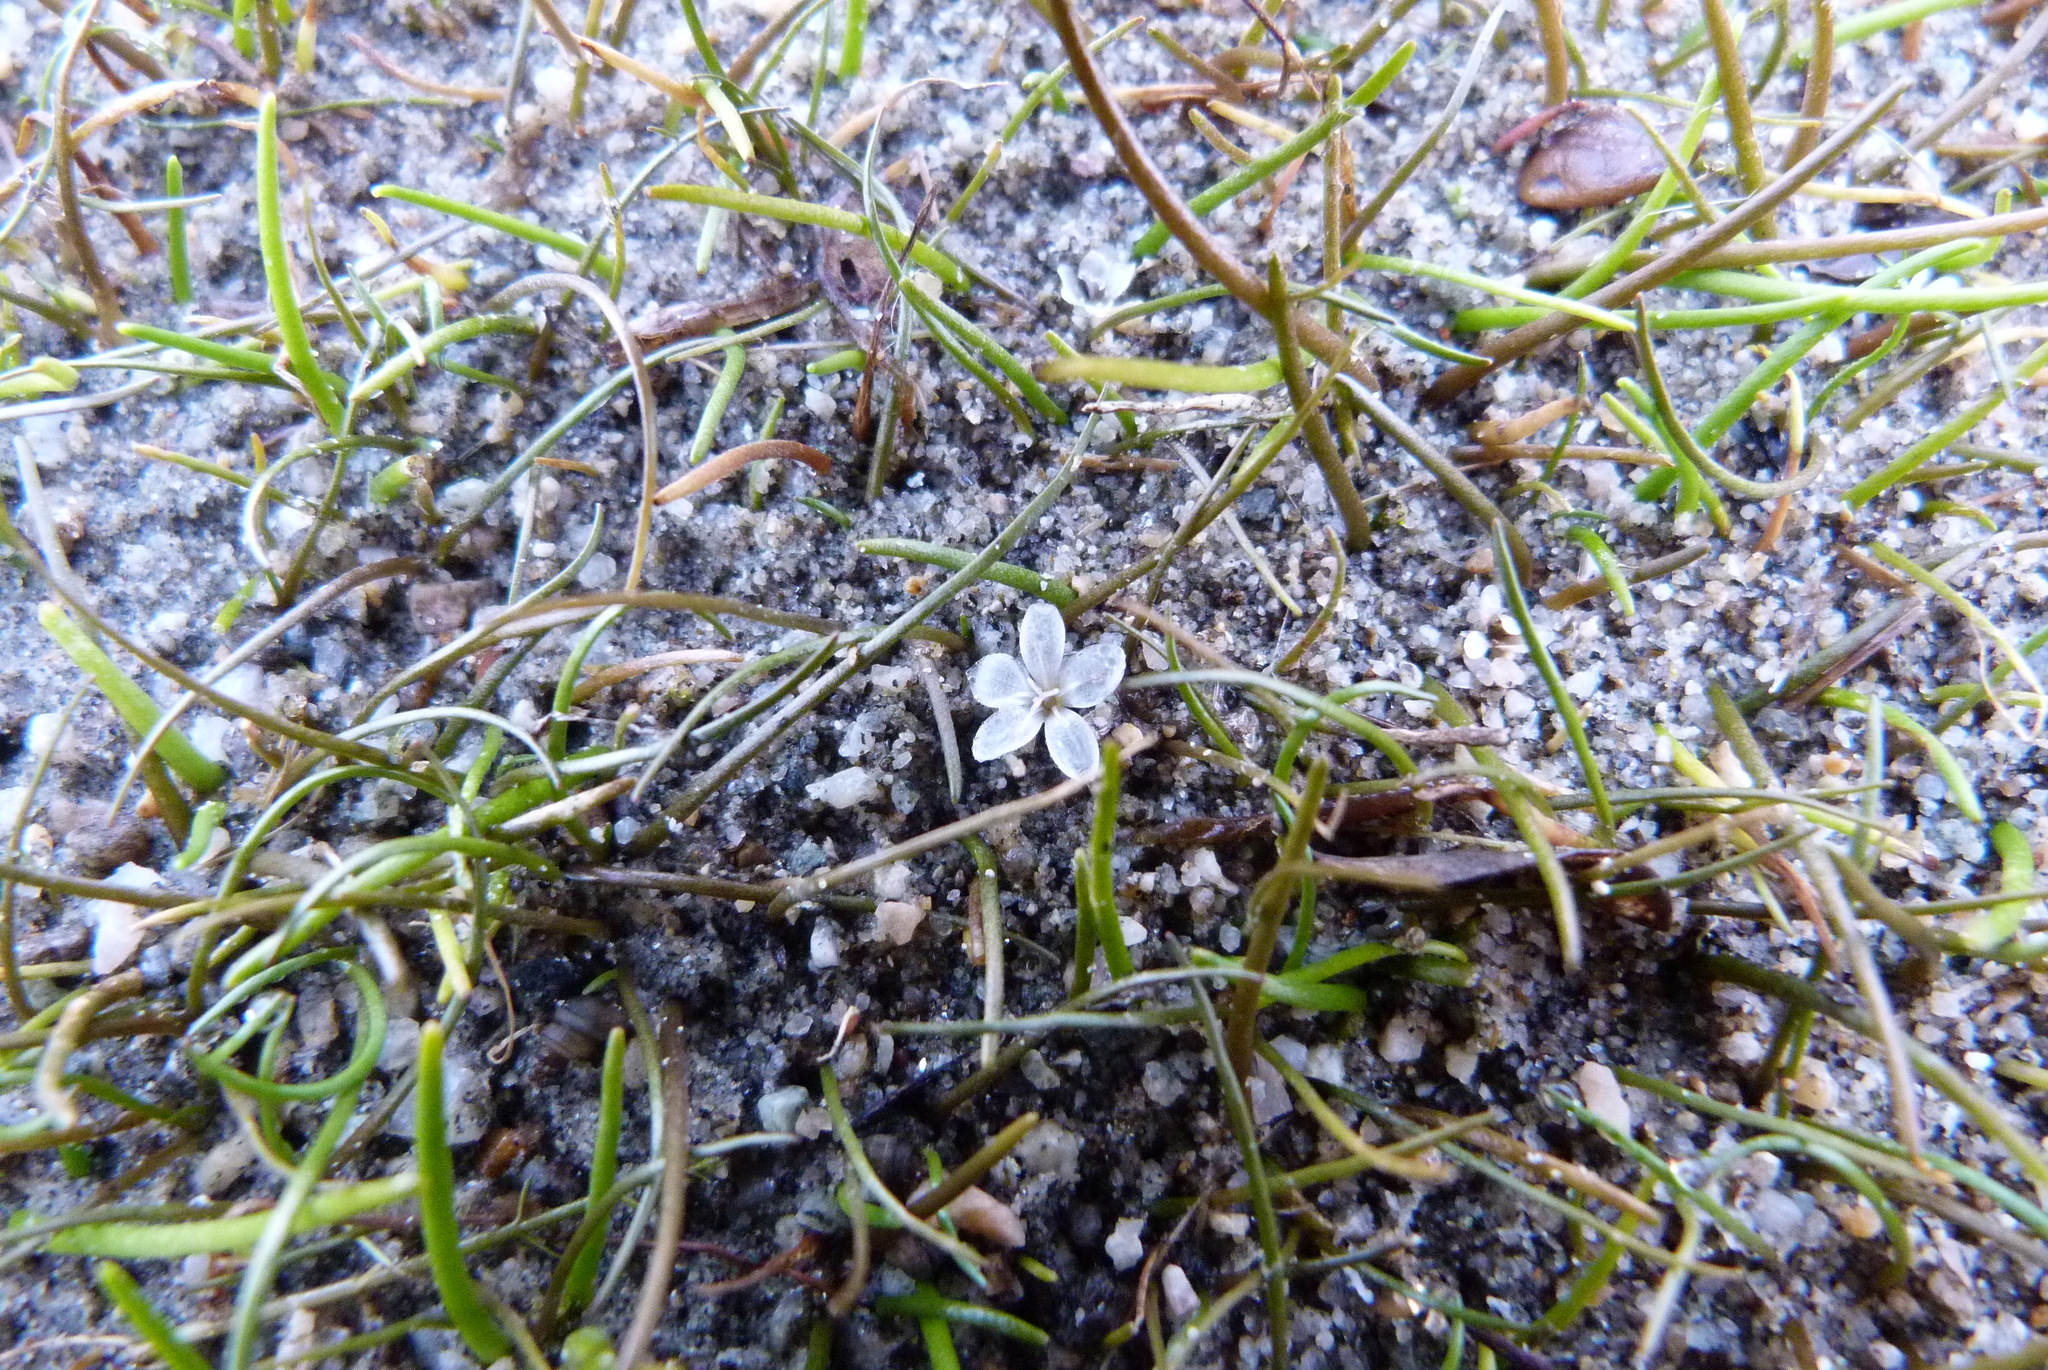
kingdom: Plantae
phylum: Tracheophyta
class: Magnoliopsida
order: Caryophyllales
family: Montiaceae
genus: Montia
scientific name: Montia angustifolia
